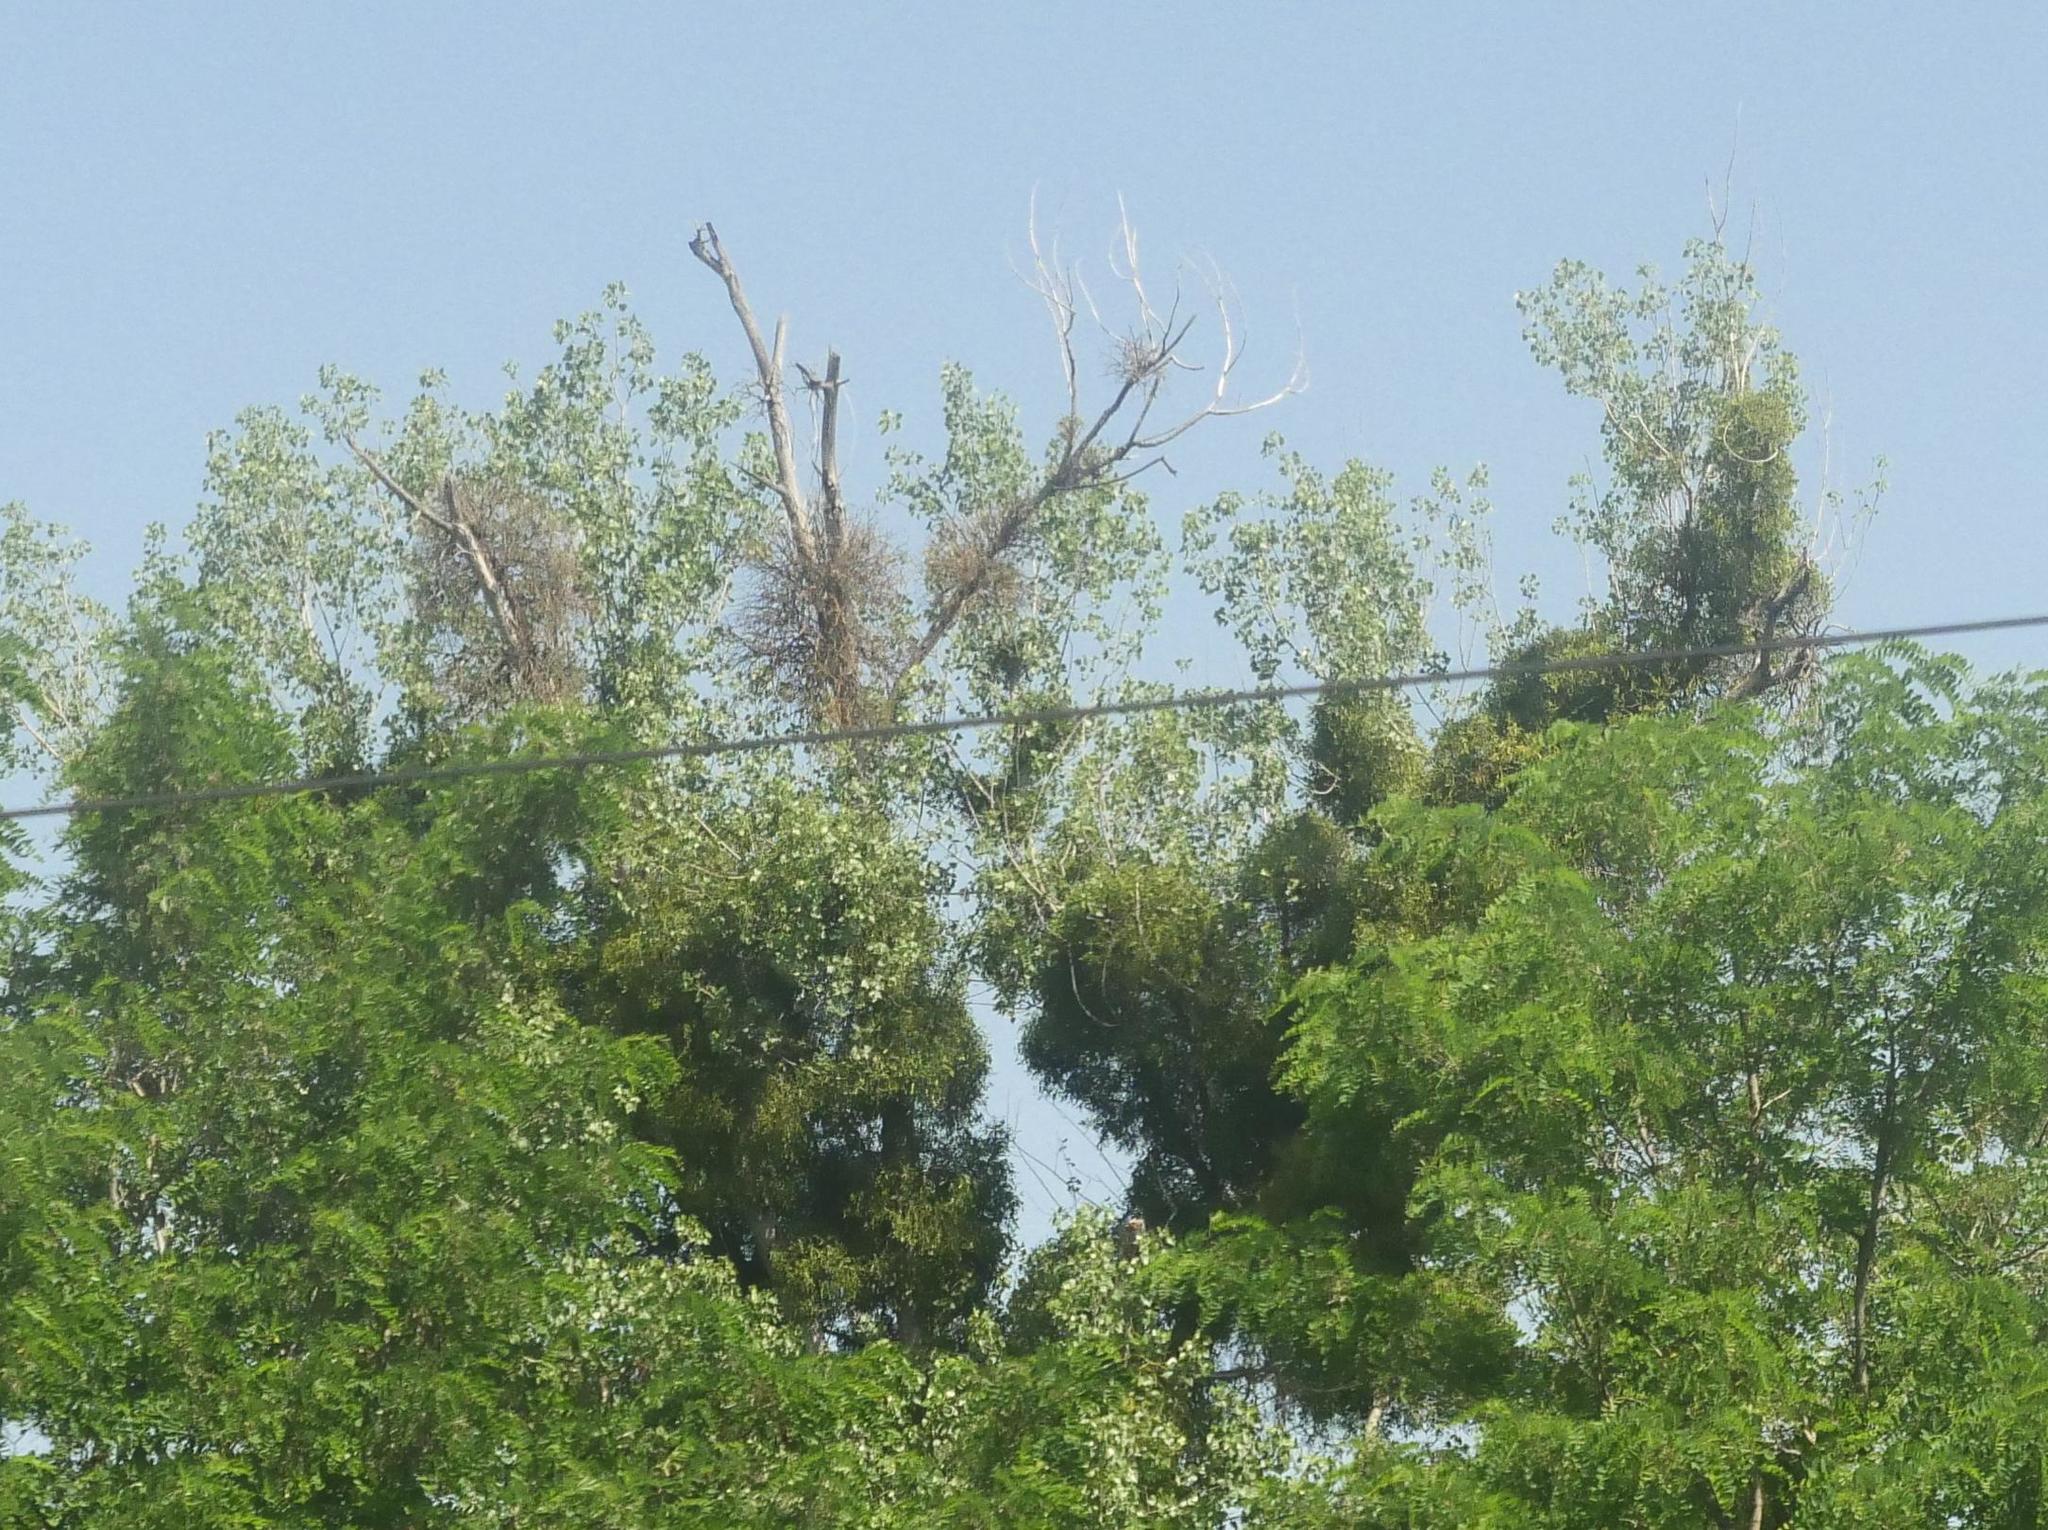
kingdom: Plantae
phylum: Tracheophyta
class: Magnoliopsida
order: Santalales
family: Viscaceae
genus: Viscum
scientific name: Viscum album
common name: Mistletoe
